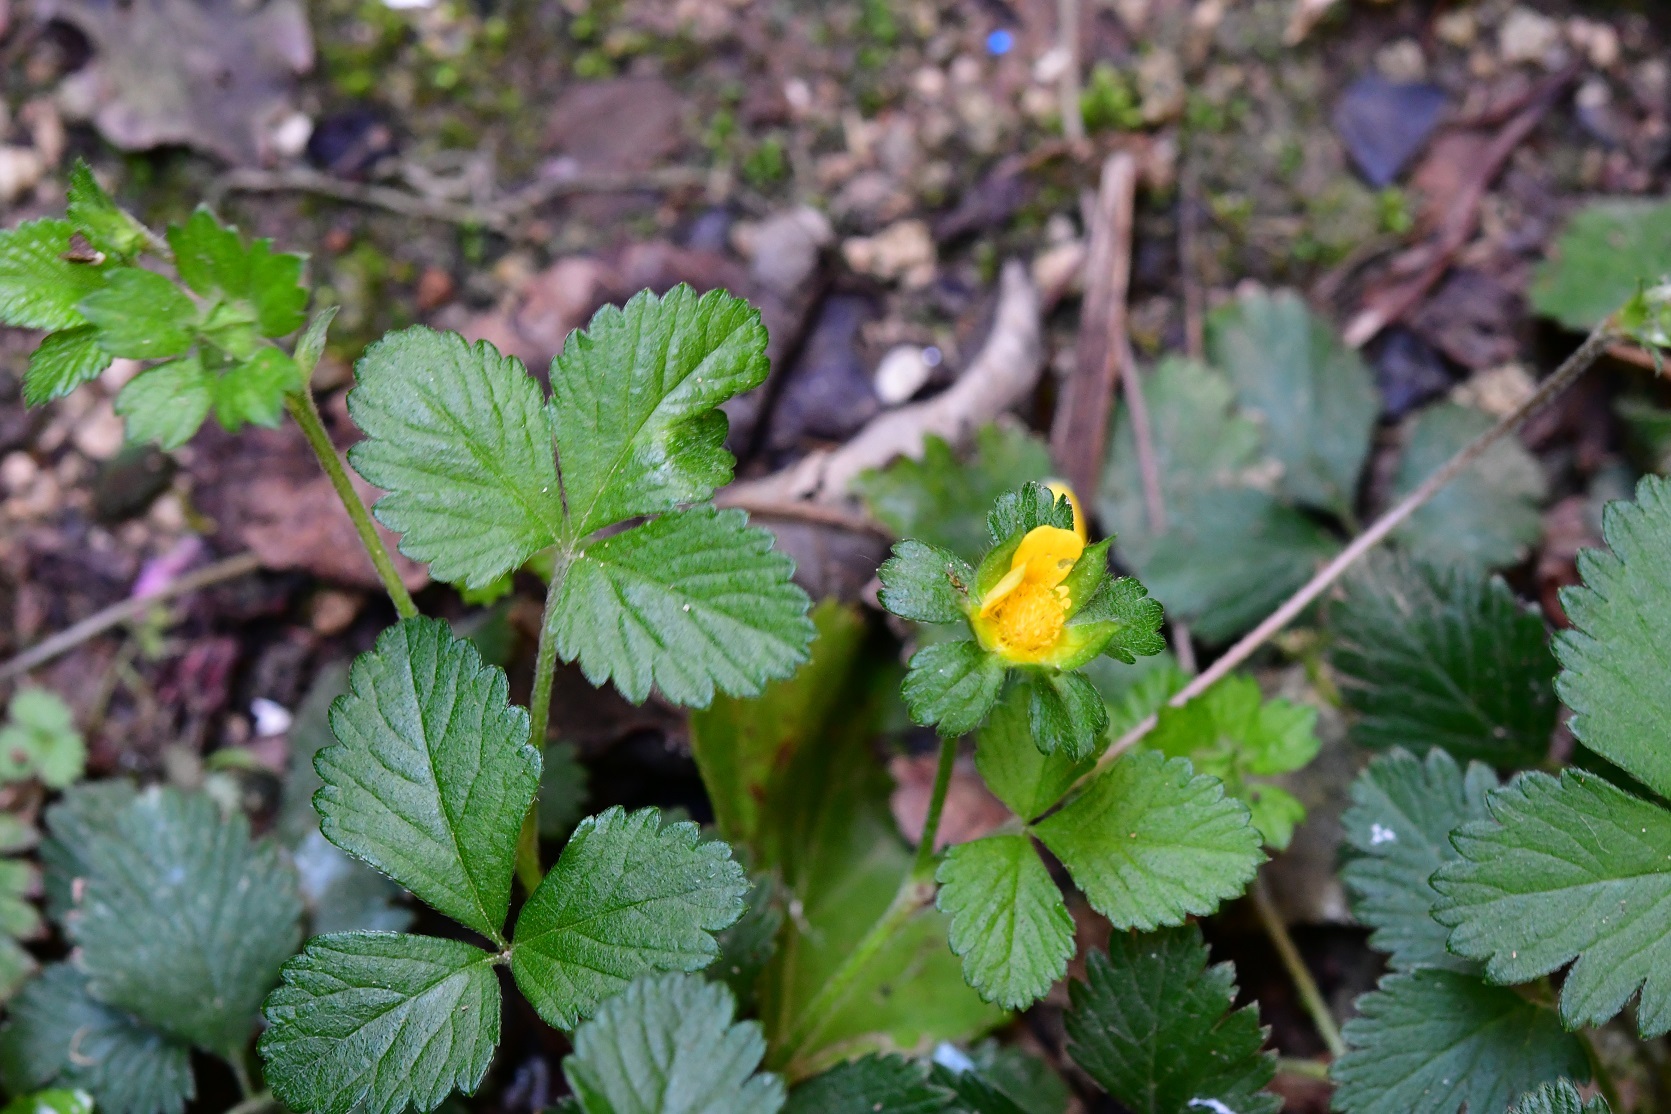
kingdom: Plantae
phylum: Tracheophyta
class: Magnoliopsida
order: Rosales
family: Rosaceae
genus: Potentilla
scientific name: Potentilla indica
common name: Yellow-flowered strawberry
